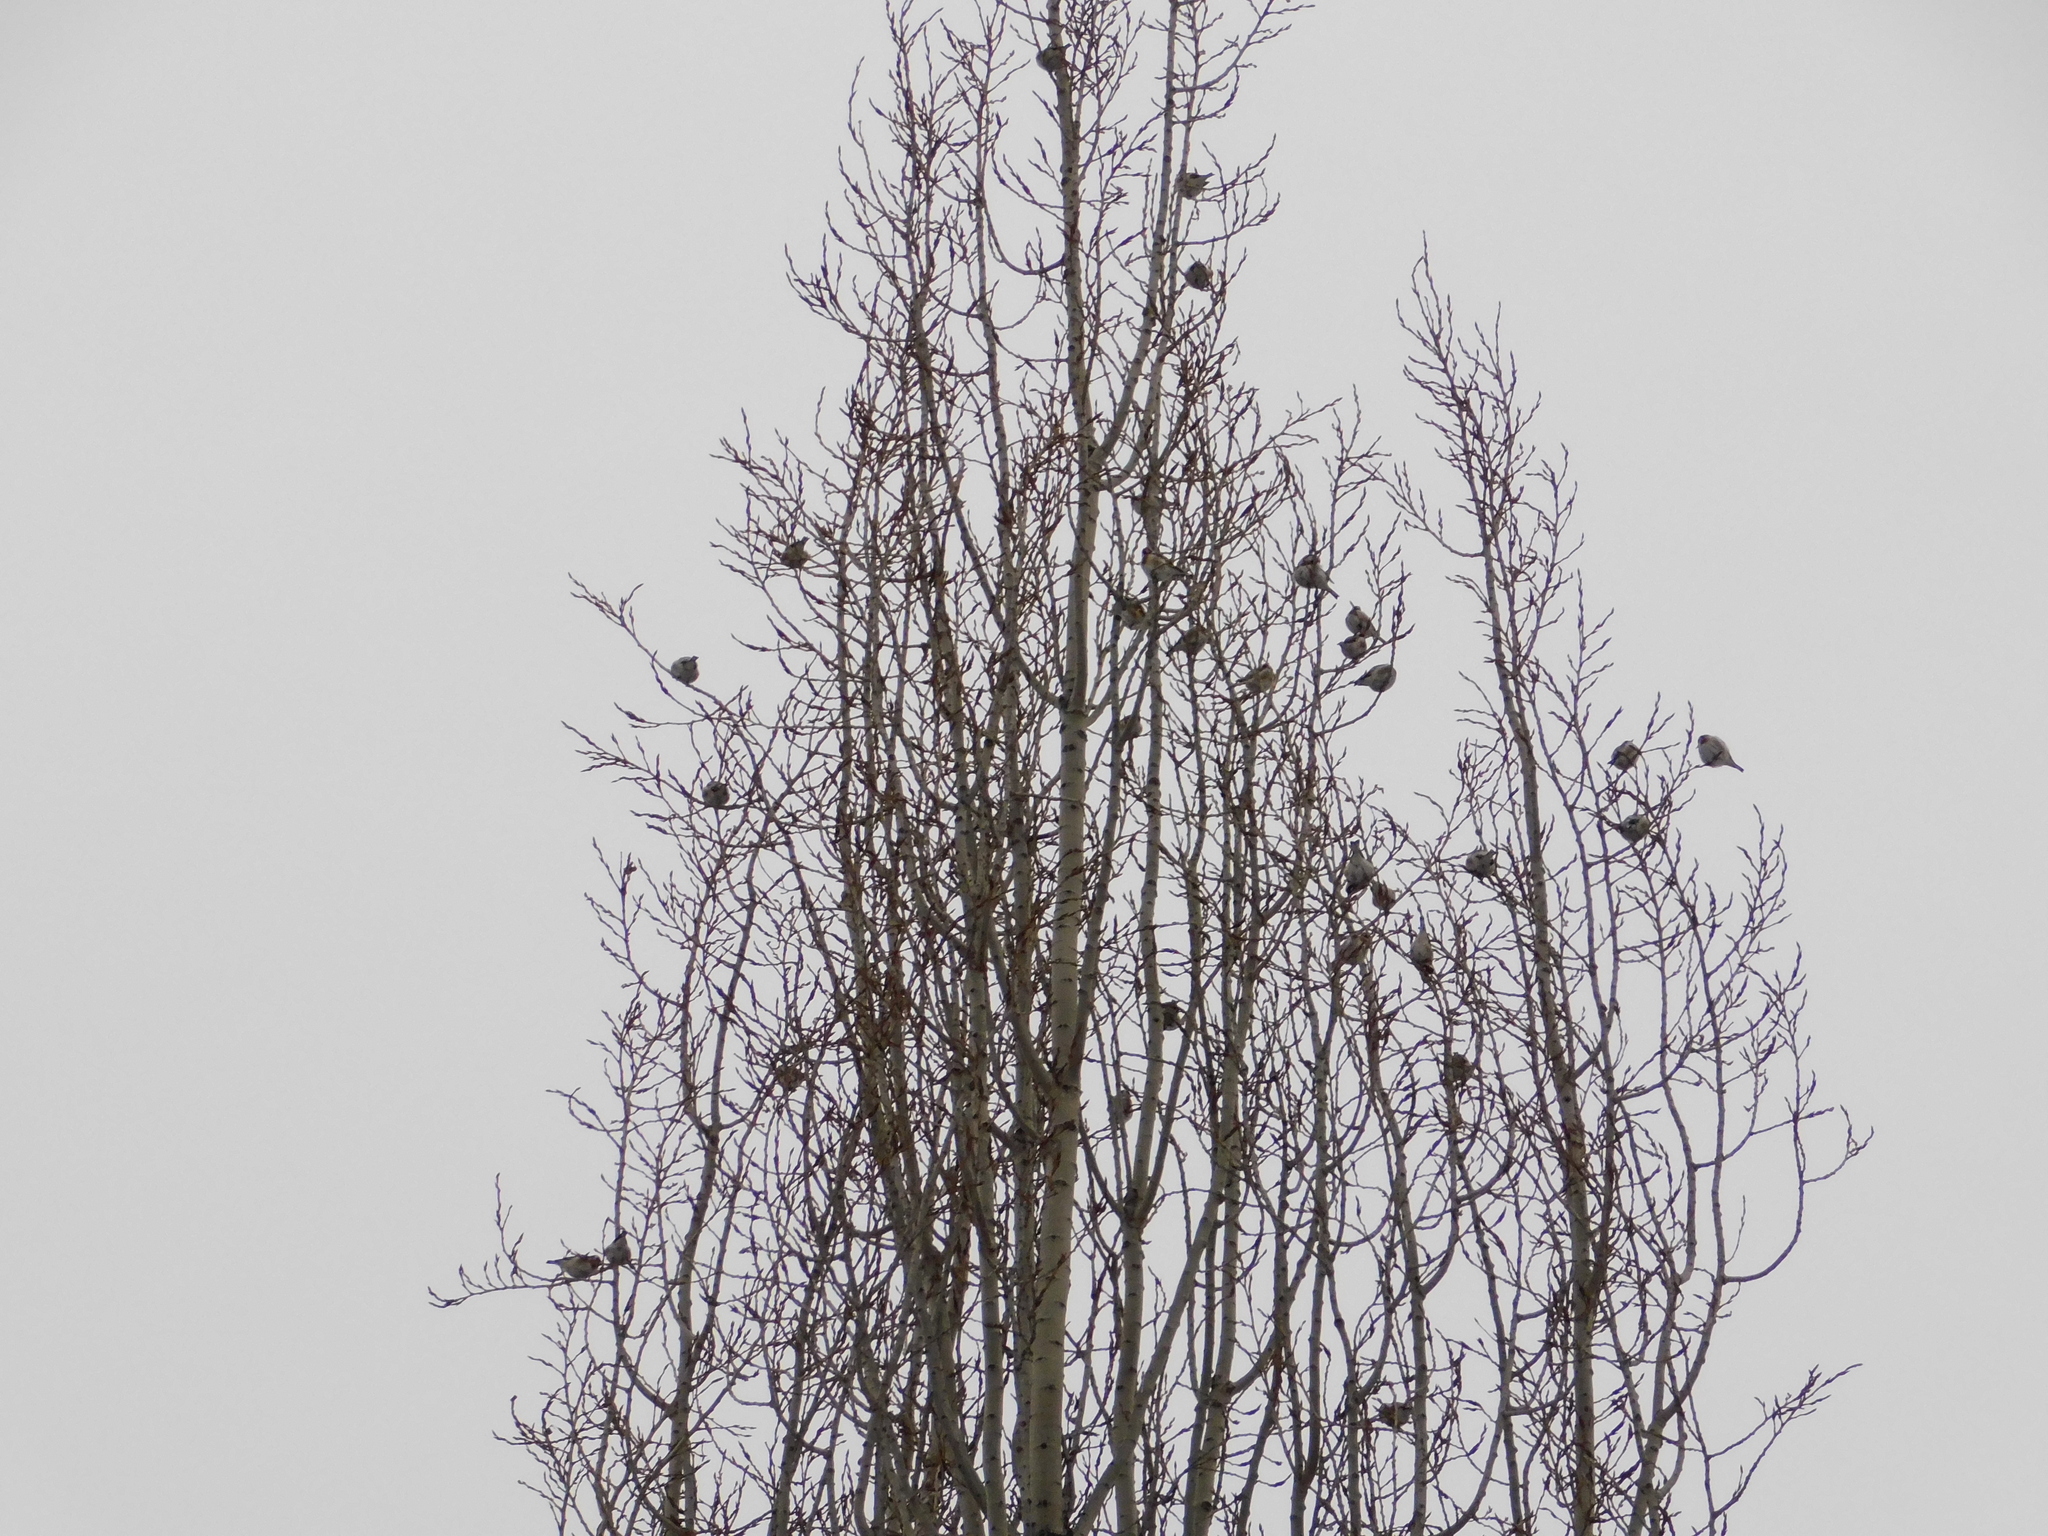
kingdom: Animalia
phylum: Chordata
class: Aves
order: Passeriformes
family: Fringillidae
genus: Carduelis
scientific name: Carduelis carduelis
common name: European goldfinch
